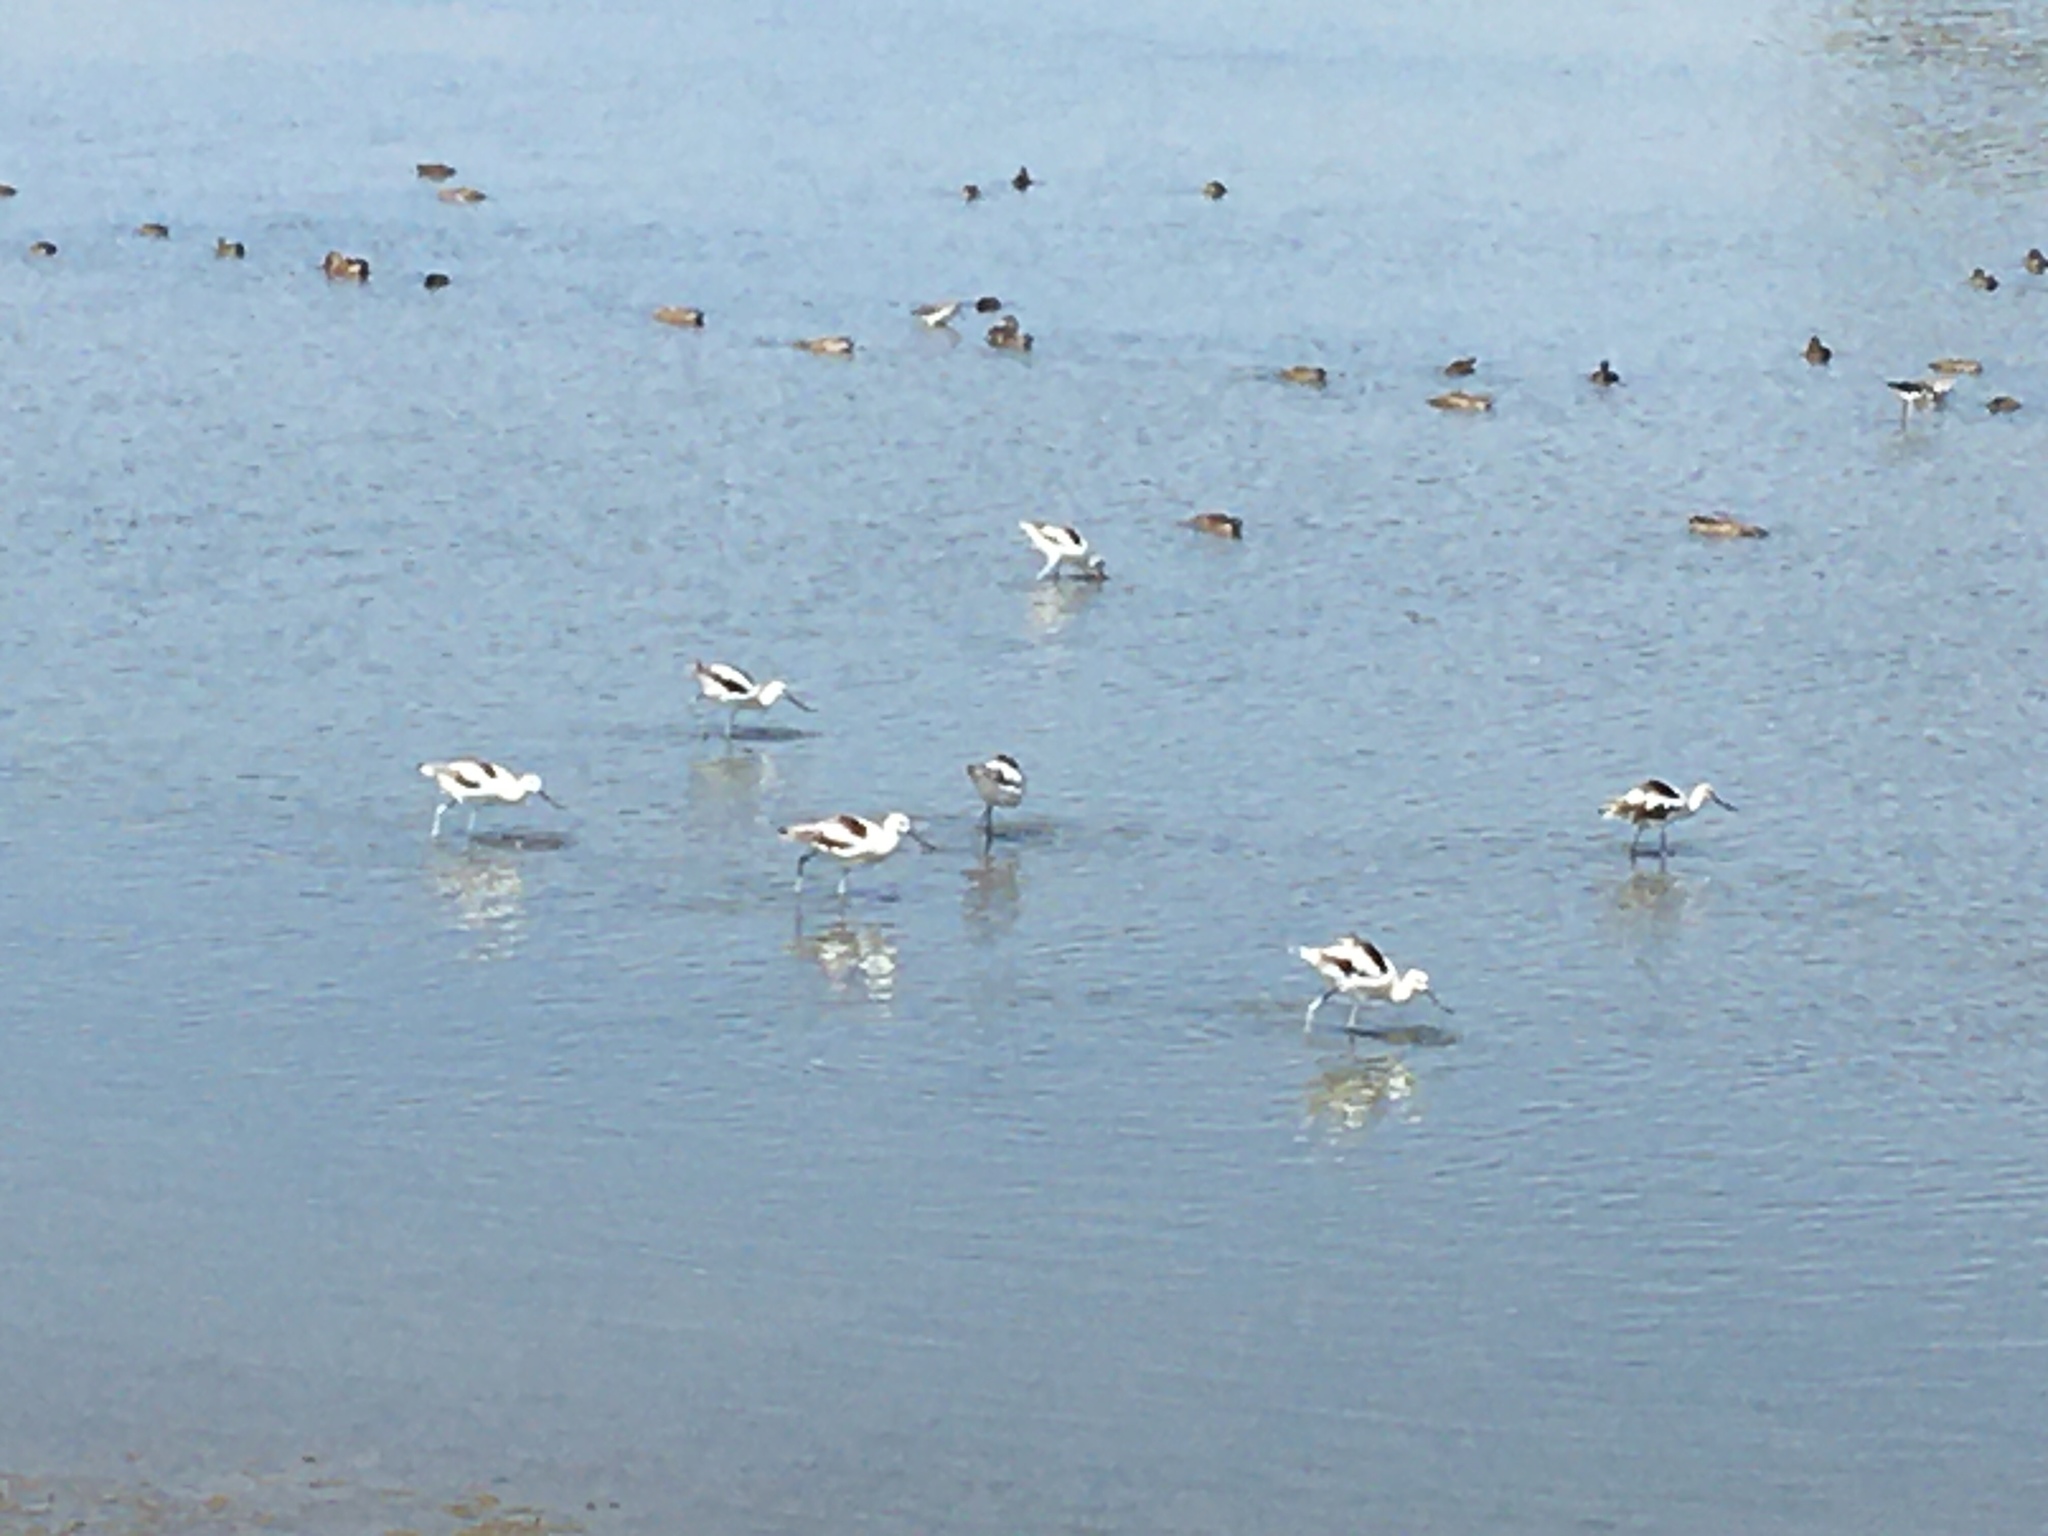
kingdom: Animalia
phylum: Chordata
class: Aves
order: Charadriiformes
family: Recurvirostridae
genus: Recurvirostra
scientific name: Recurvirostra americana
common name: American avocet
